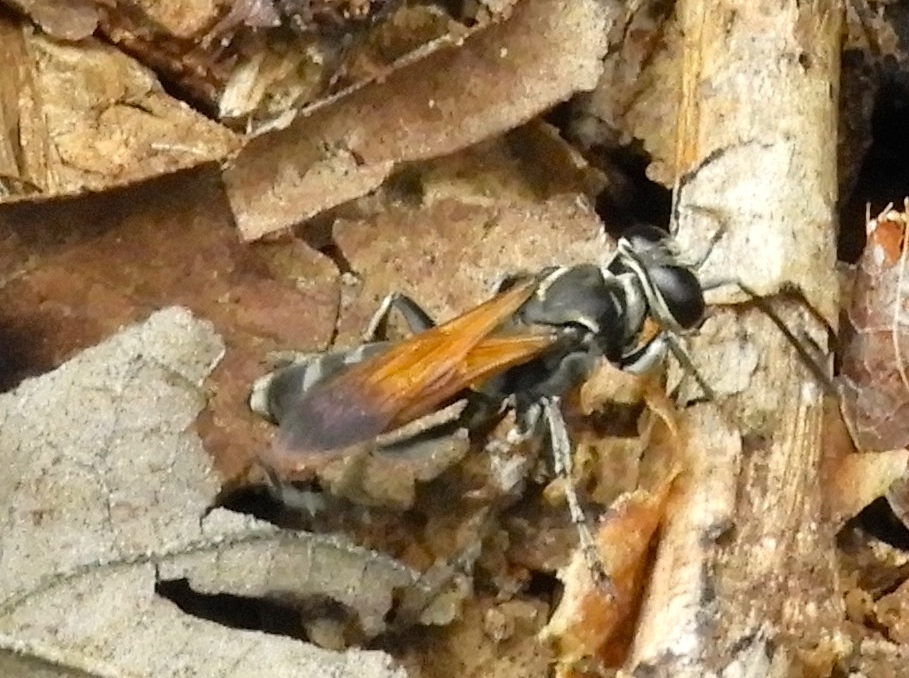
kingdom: Animalia
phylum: Arthropoda
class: Insecta
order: Hymenoptera
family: Crabronidae
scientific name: Crabronidae
